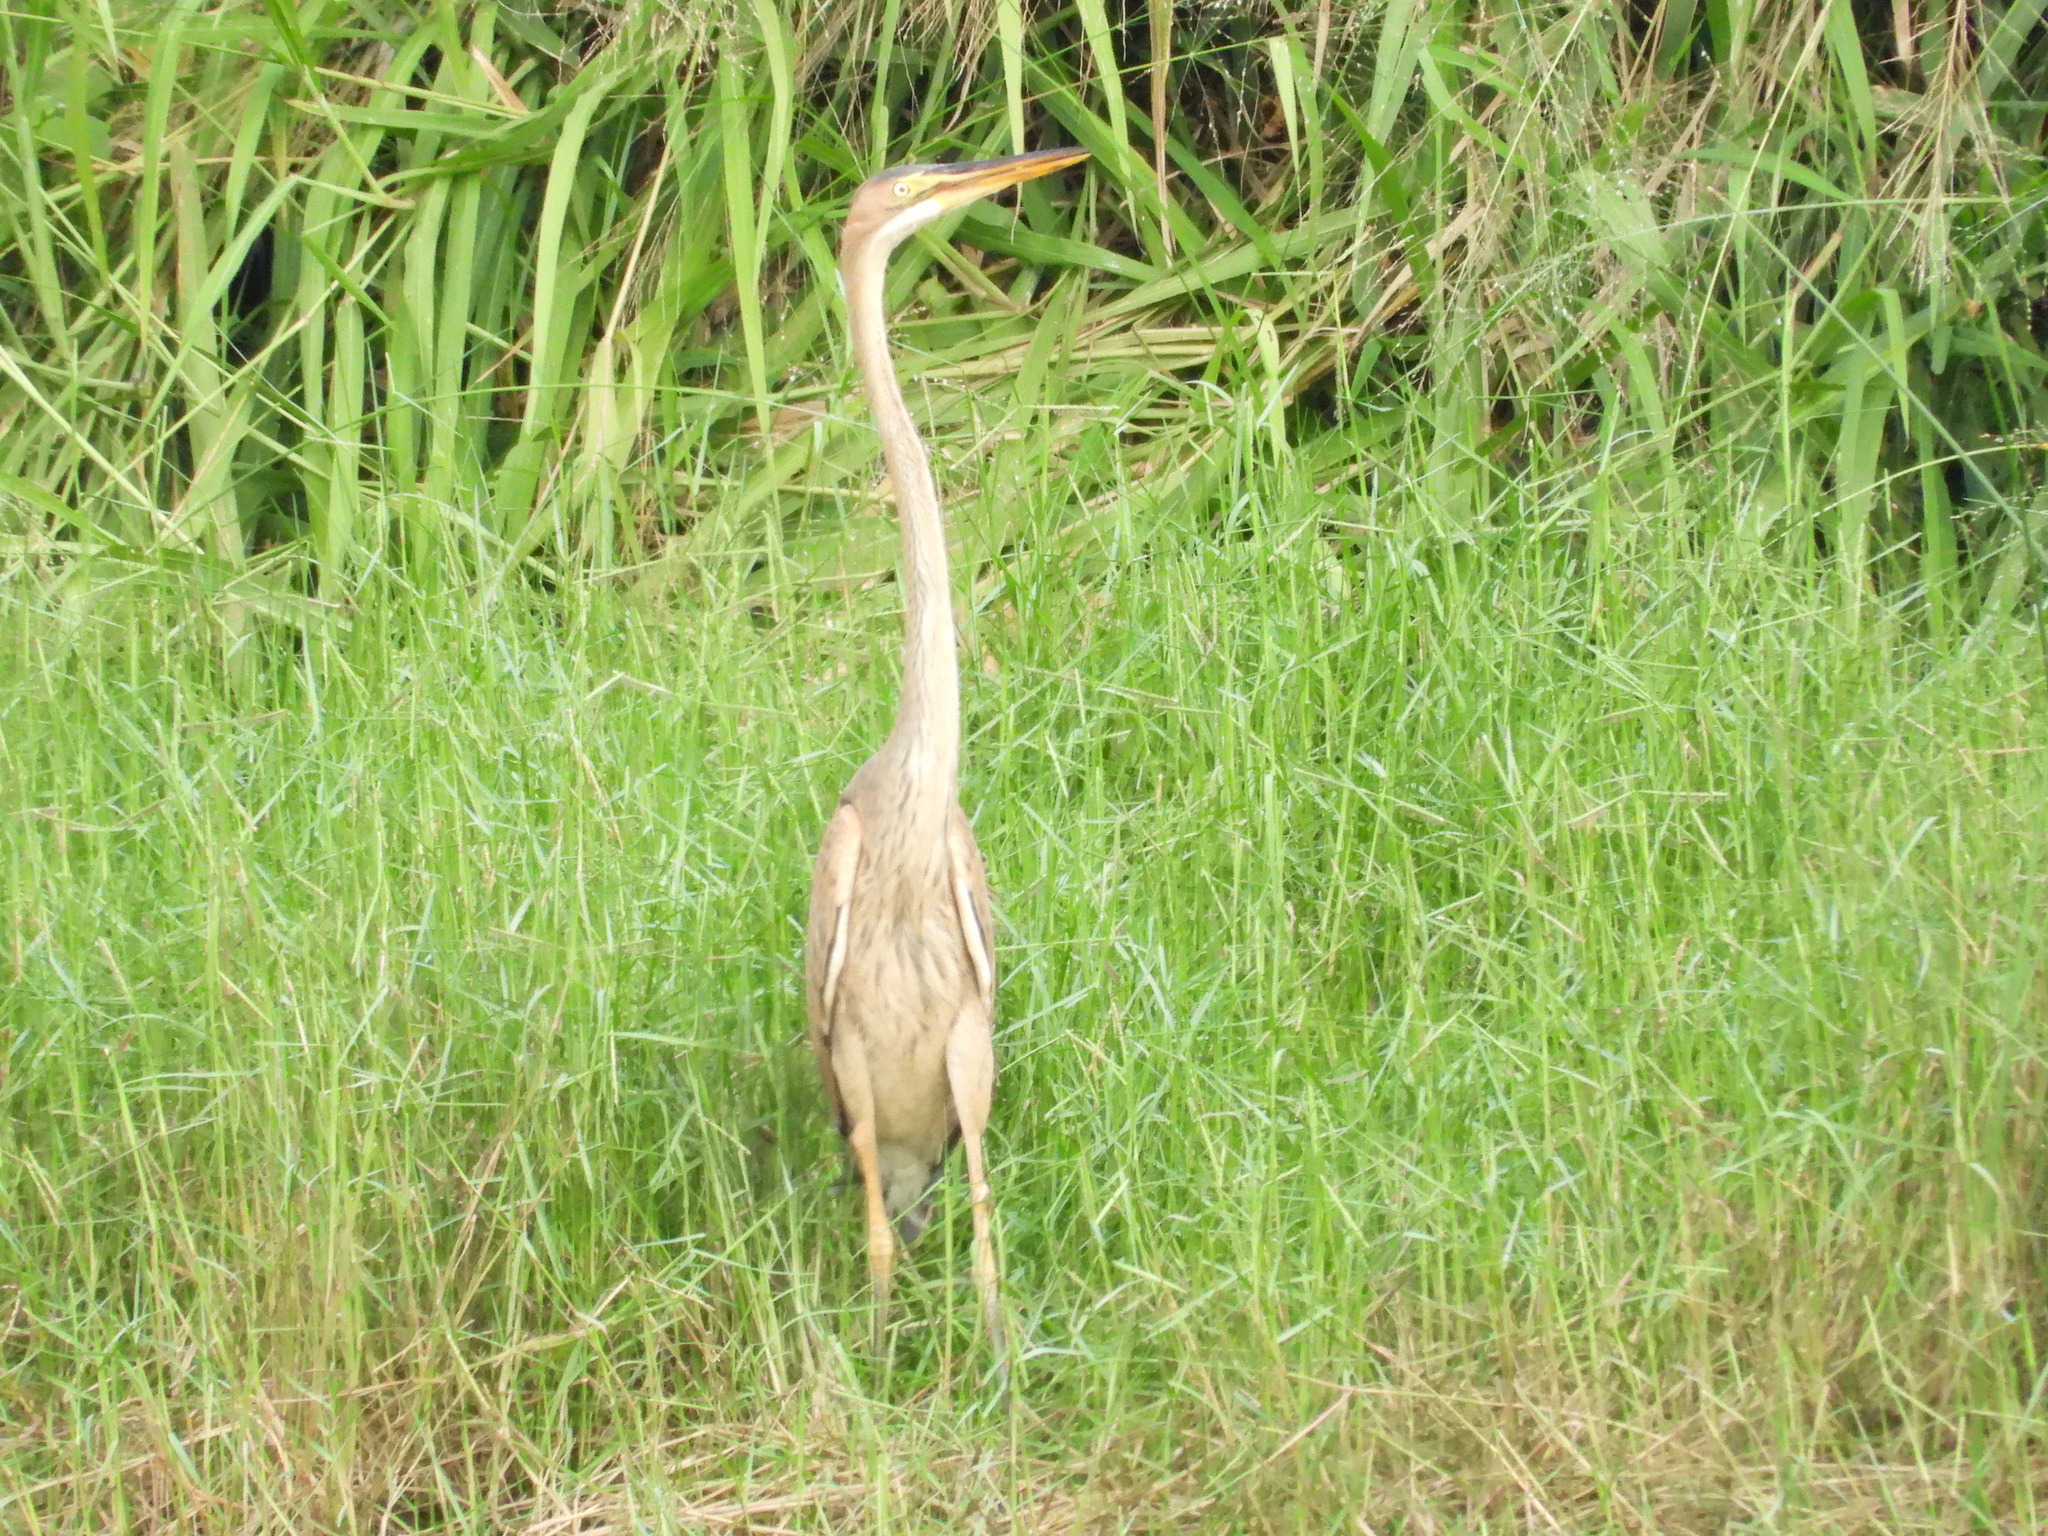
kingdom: Animalia
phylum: Chordata
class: Aves
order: Pelecaniformes
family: Ardeidae
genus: Ardea
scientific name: Ardea purpurea
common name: Purple heron
